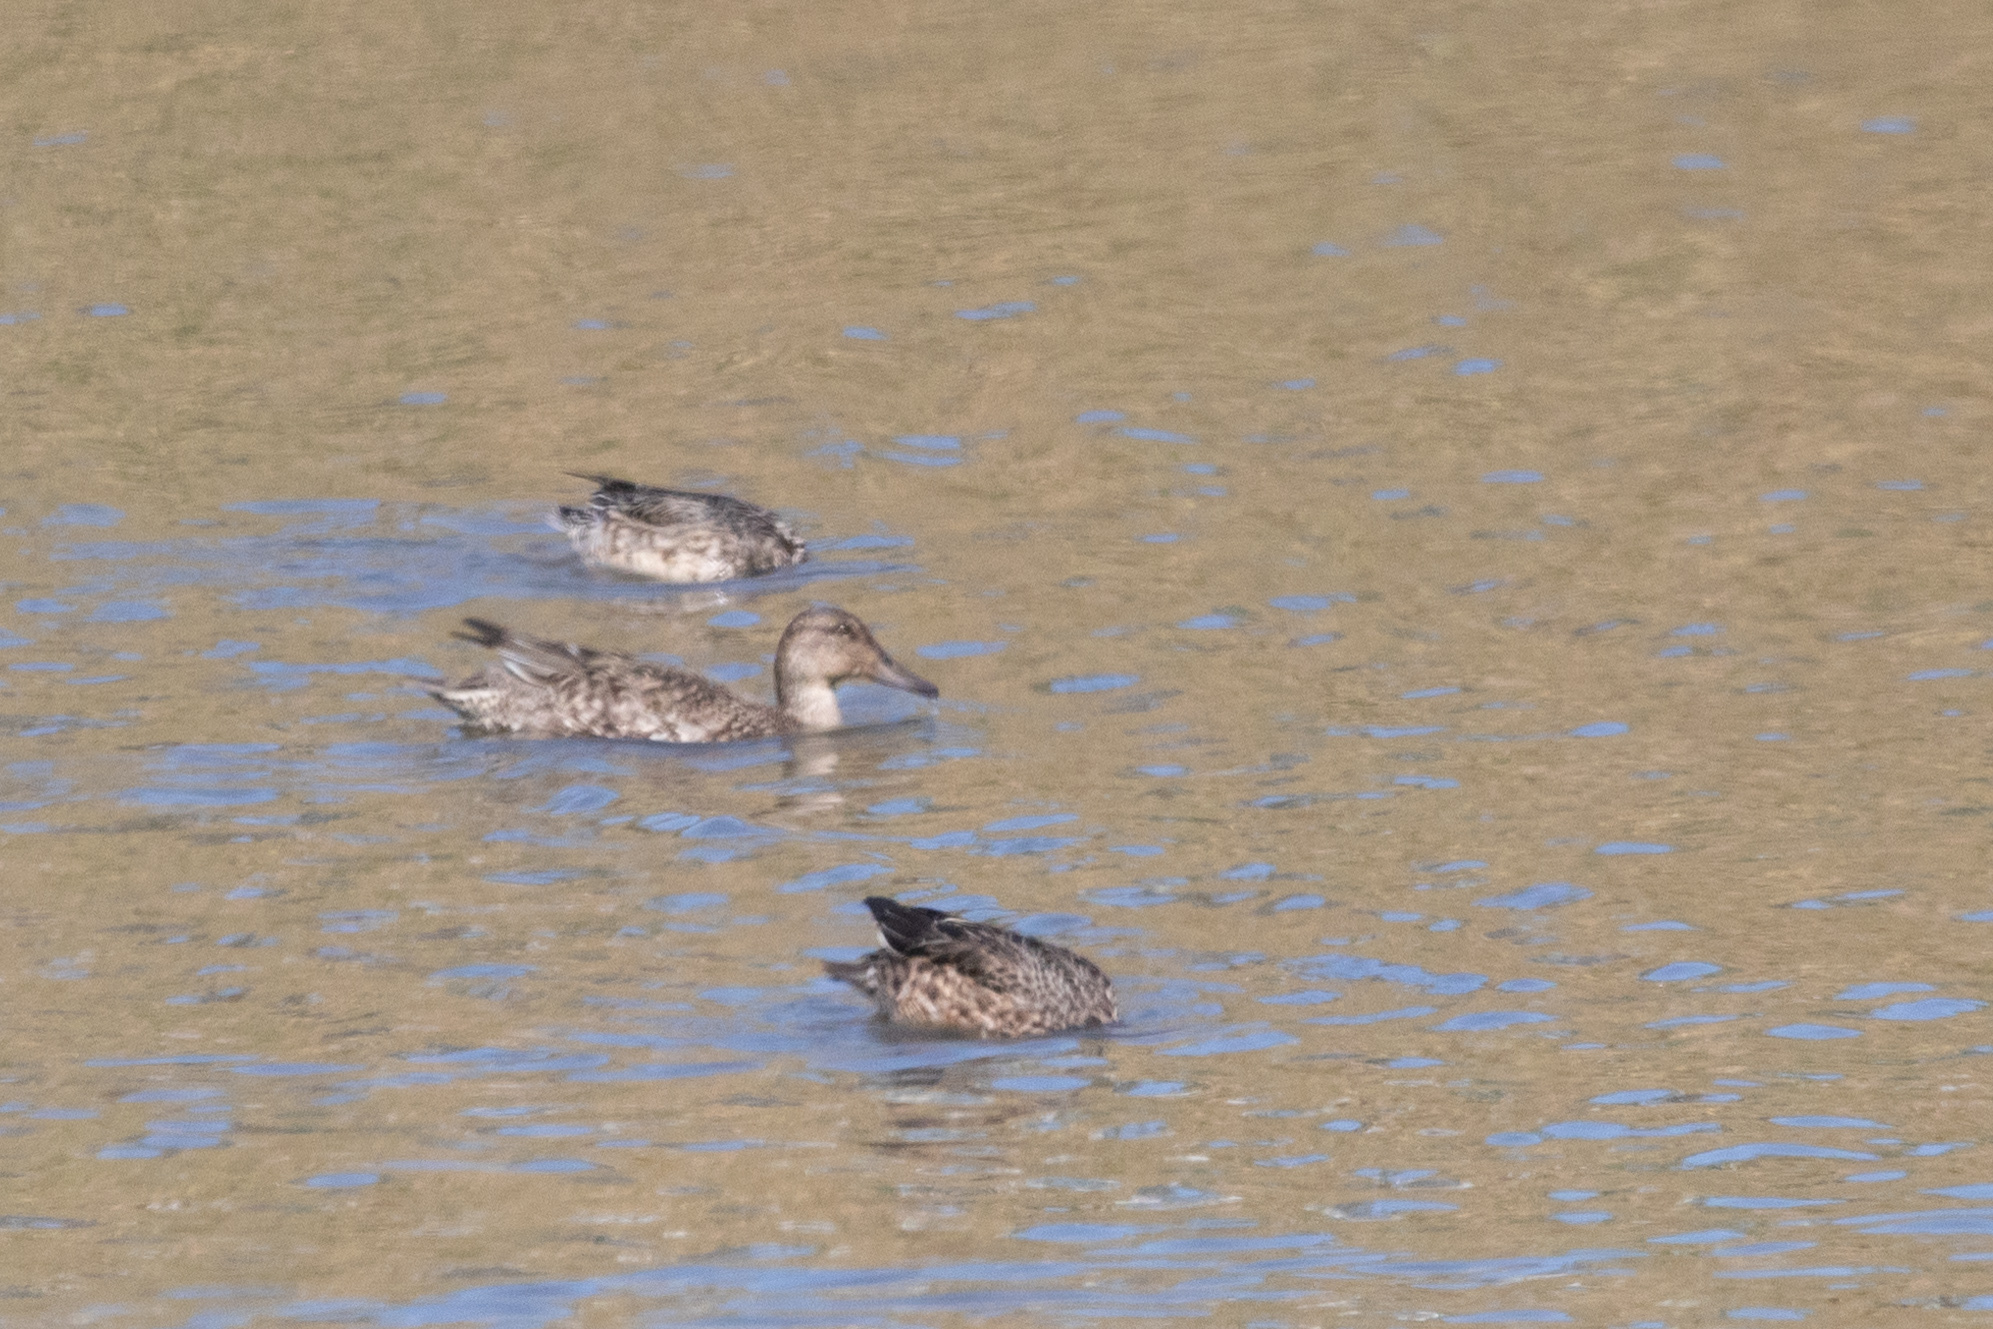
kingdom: Animalia
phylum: Chordata
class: Aves
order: Anseriformes
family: Anatidae
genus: Anas
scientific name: Anas crecca
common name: Eurasian teal
